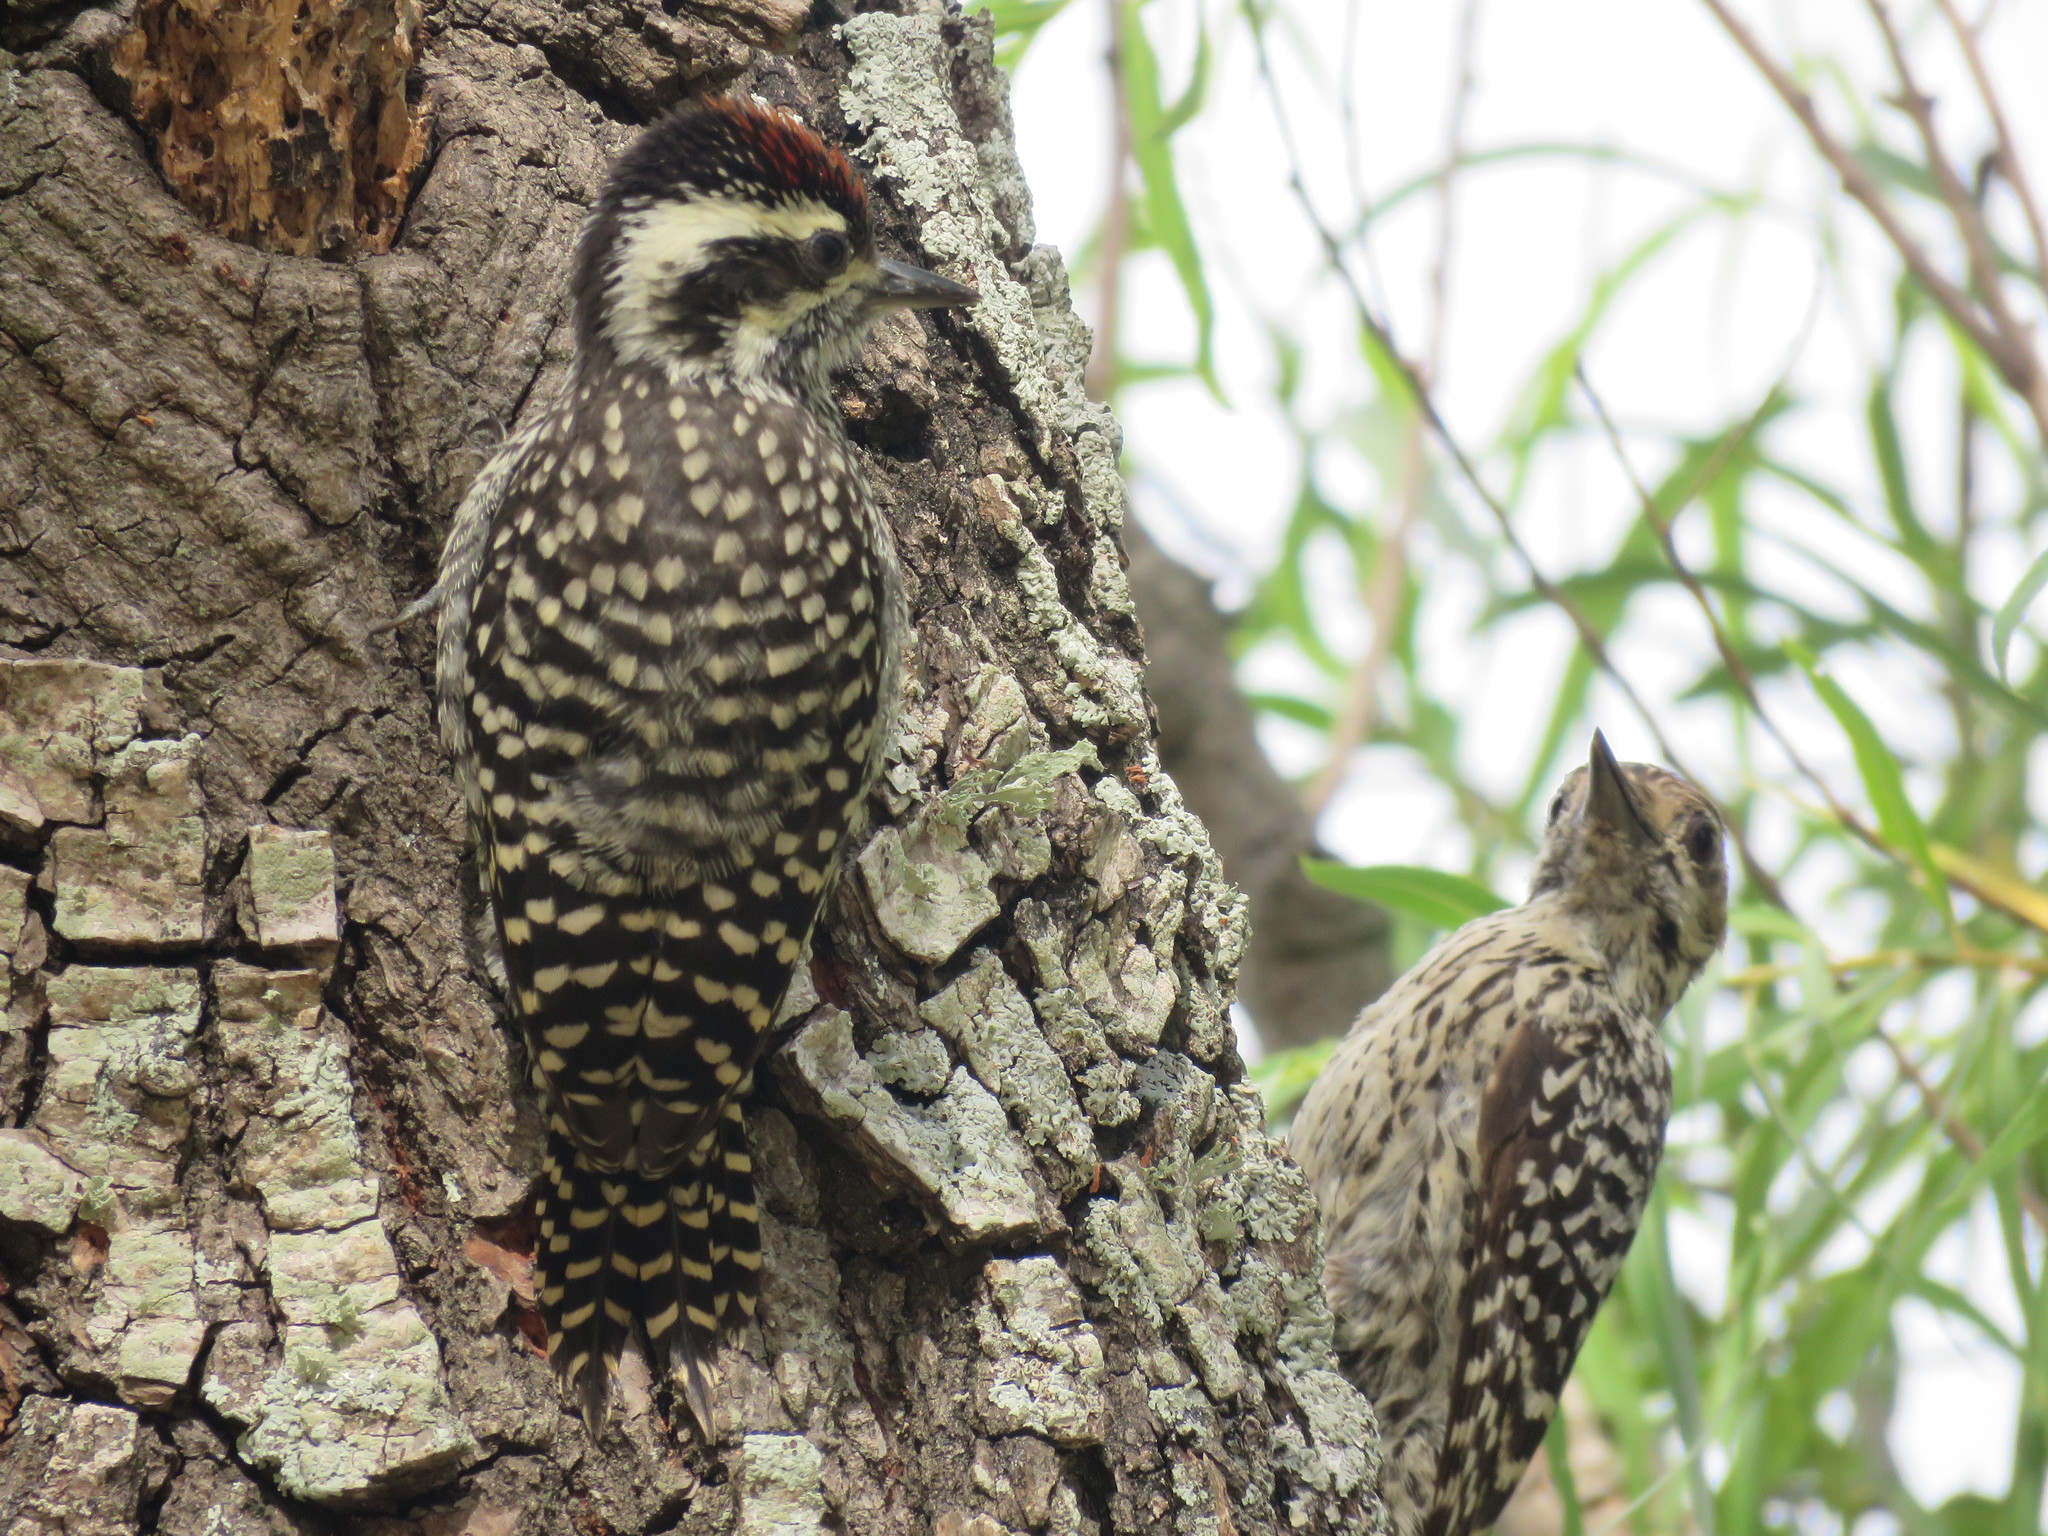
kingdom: Animalia
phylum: Chordata
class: Aves
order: Piciformes
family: Picidae
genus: Veniliornis
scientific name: Veniliornis mixtus
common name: Checkered woodpecker
